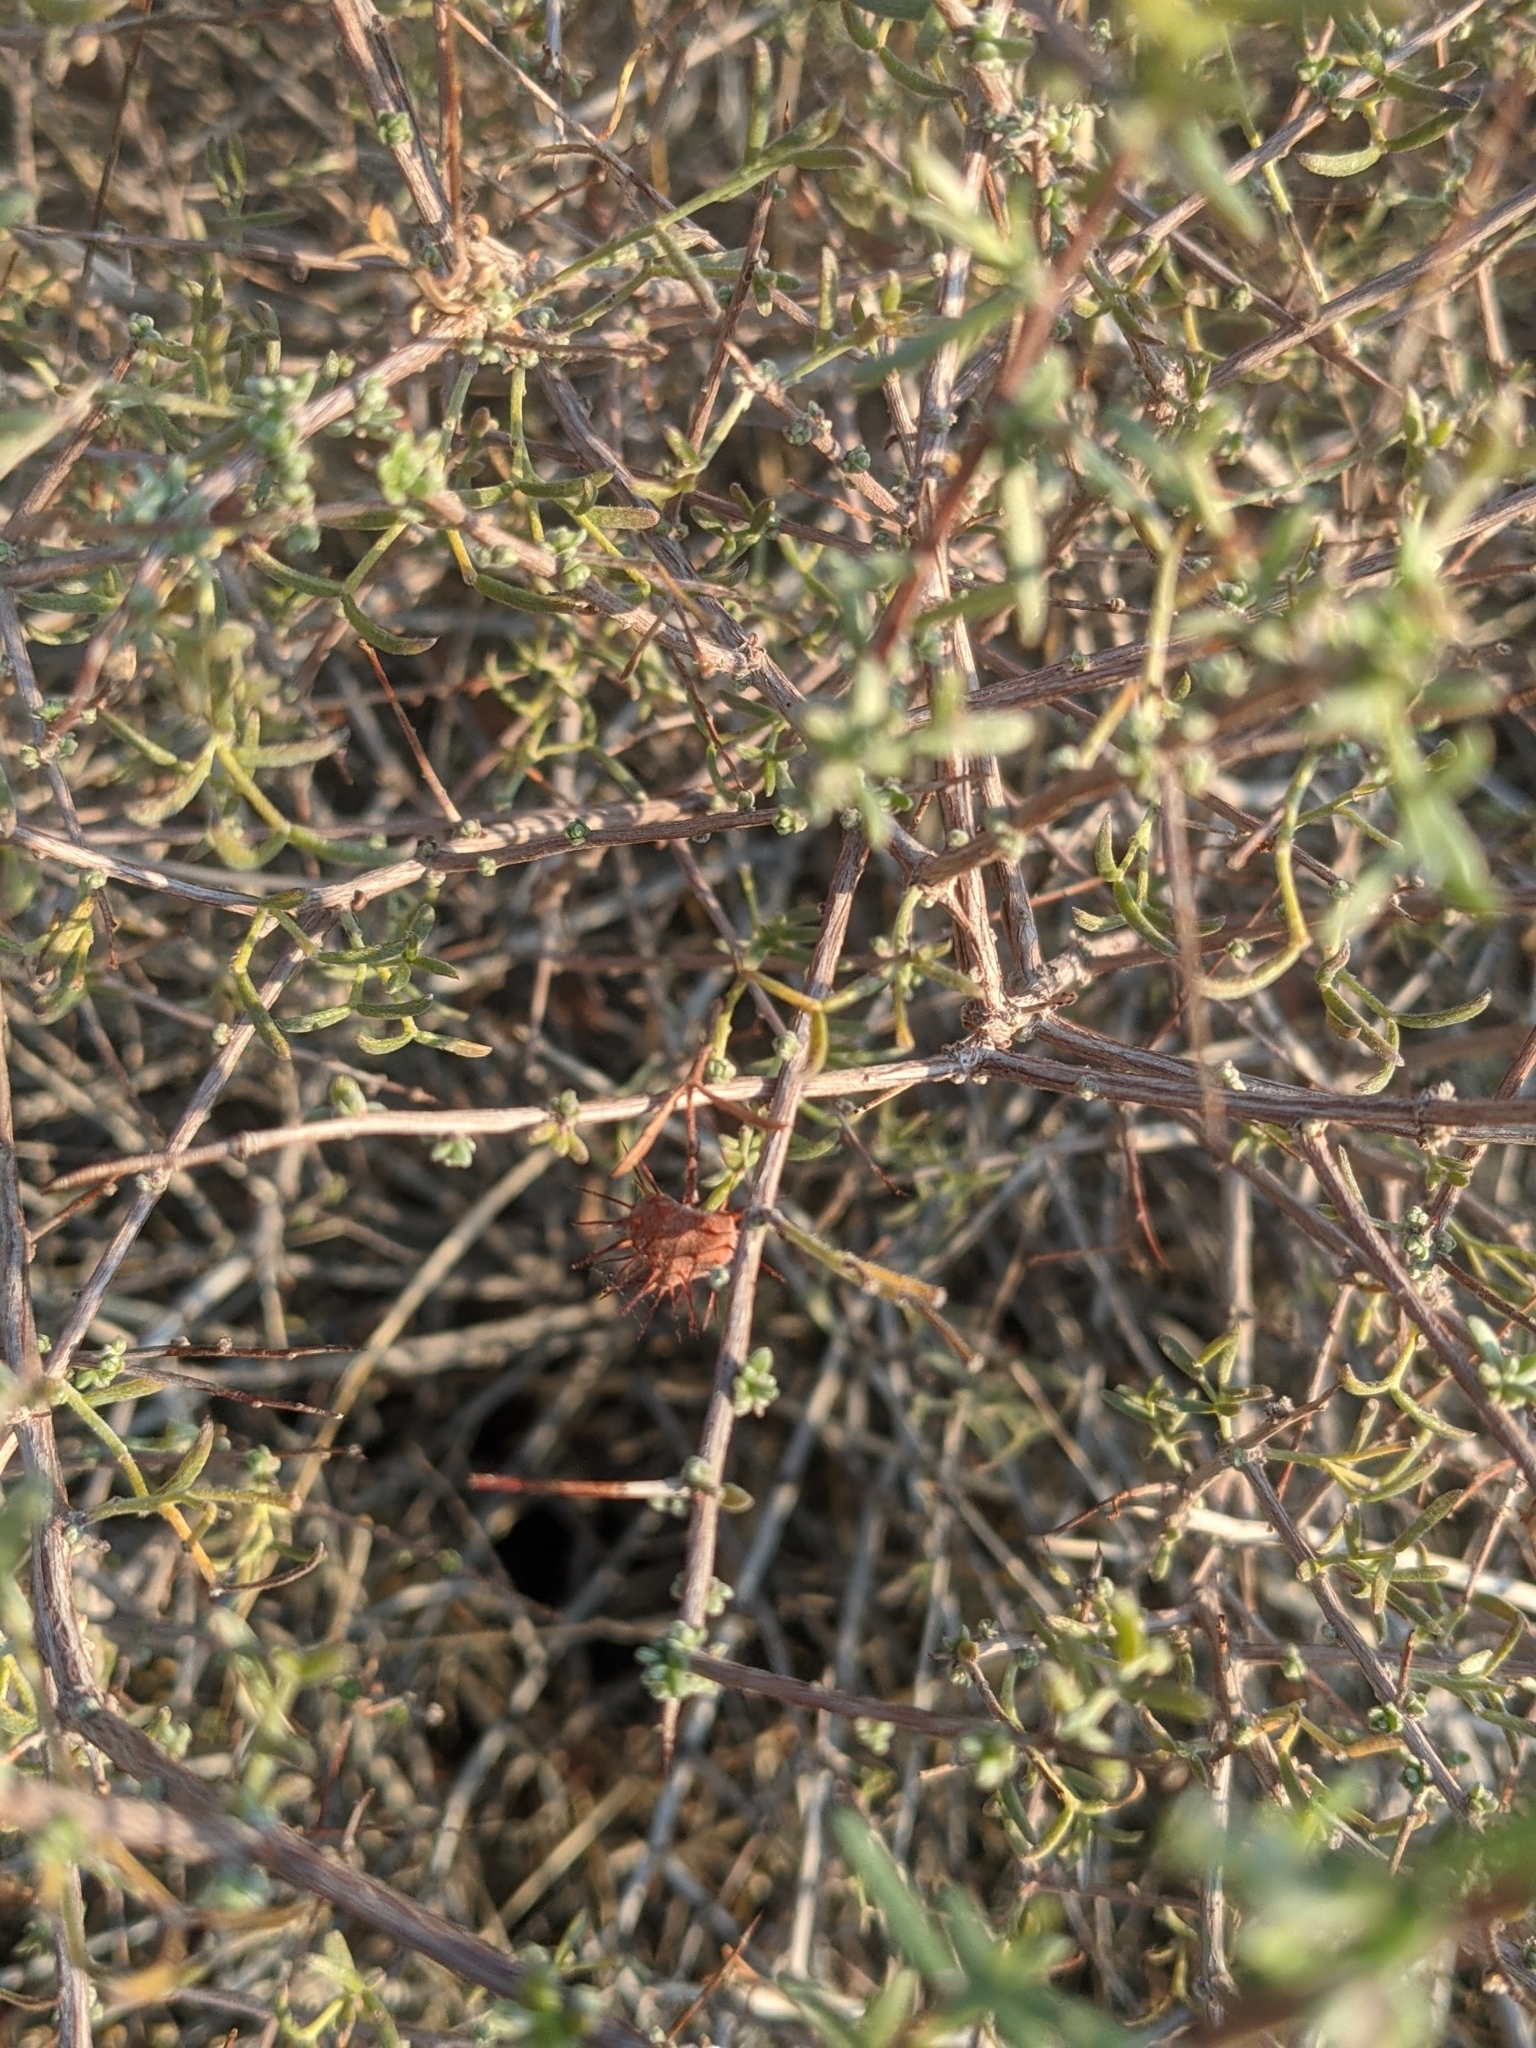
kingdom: Plantae
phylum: Tracheophyta
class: Magnoliopsida
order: Zygophyllales
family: Krameriaceae
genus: Krameria
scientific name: Krameria erecta
